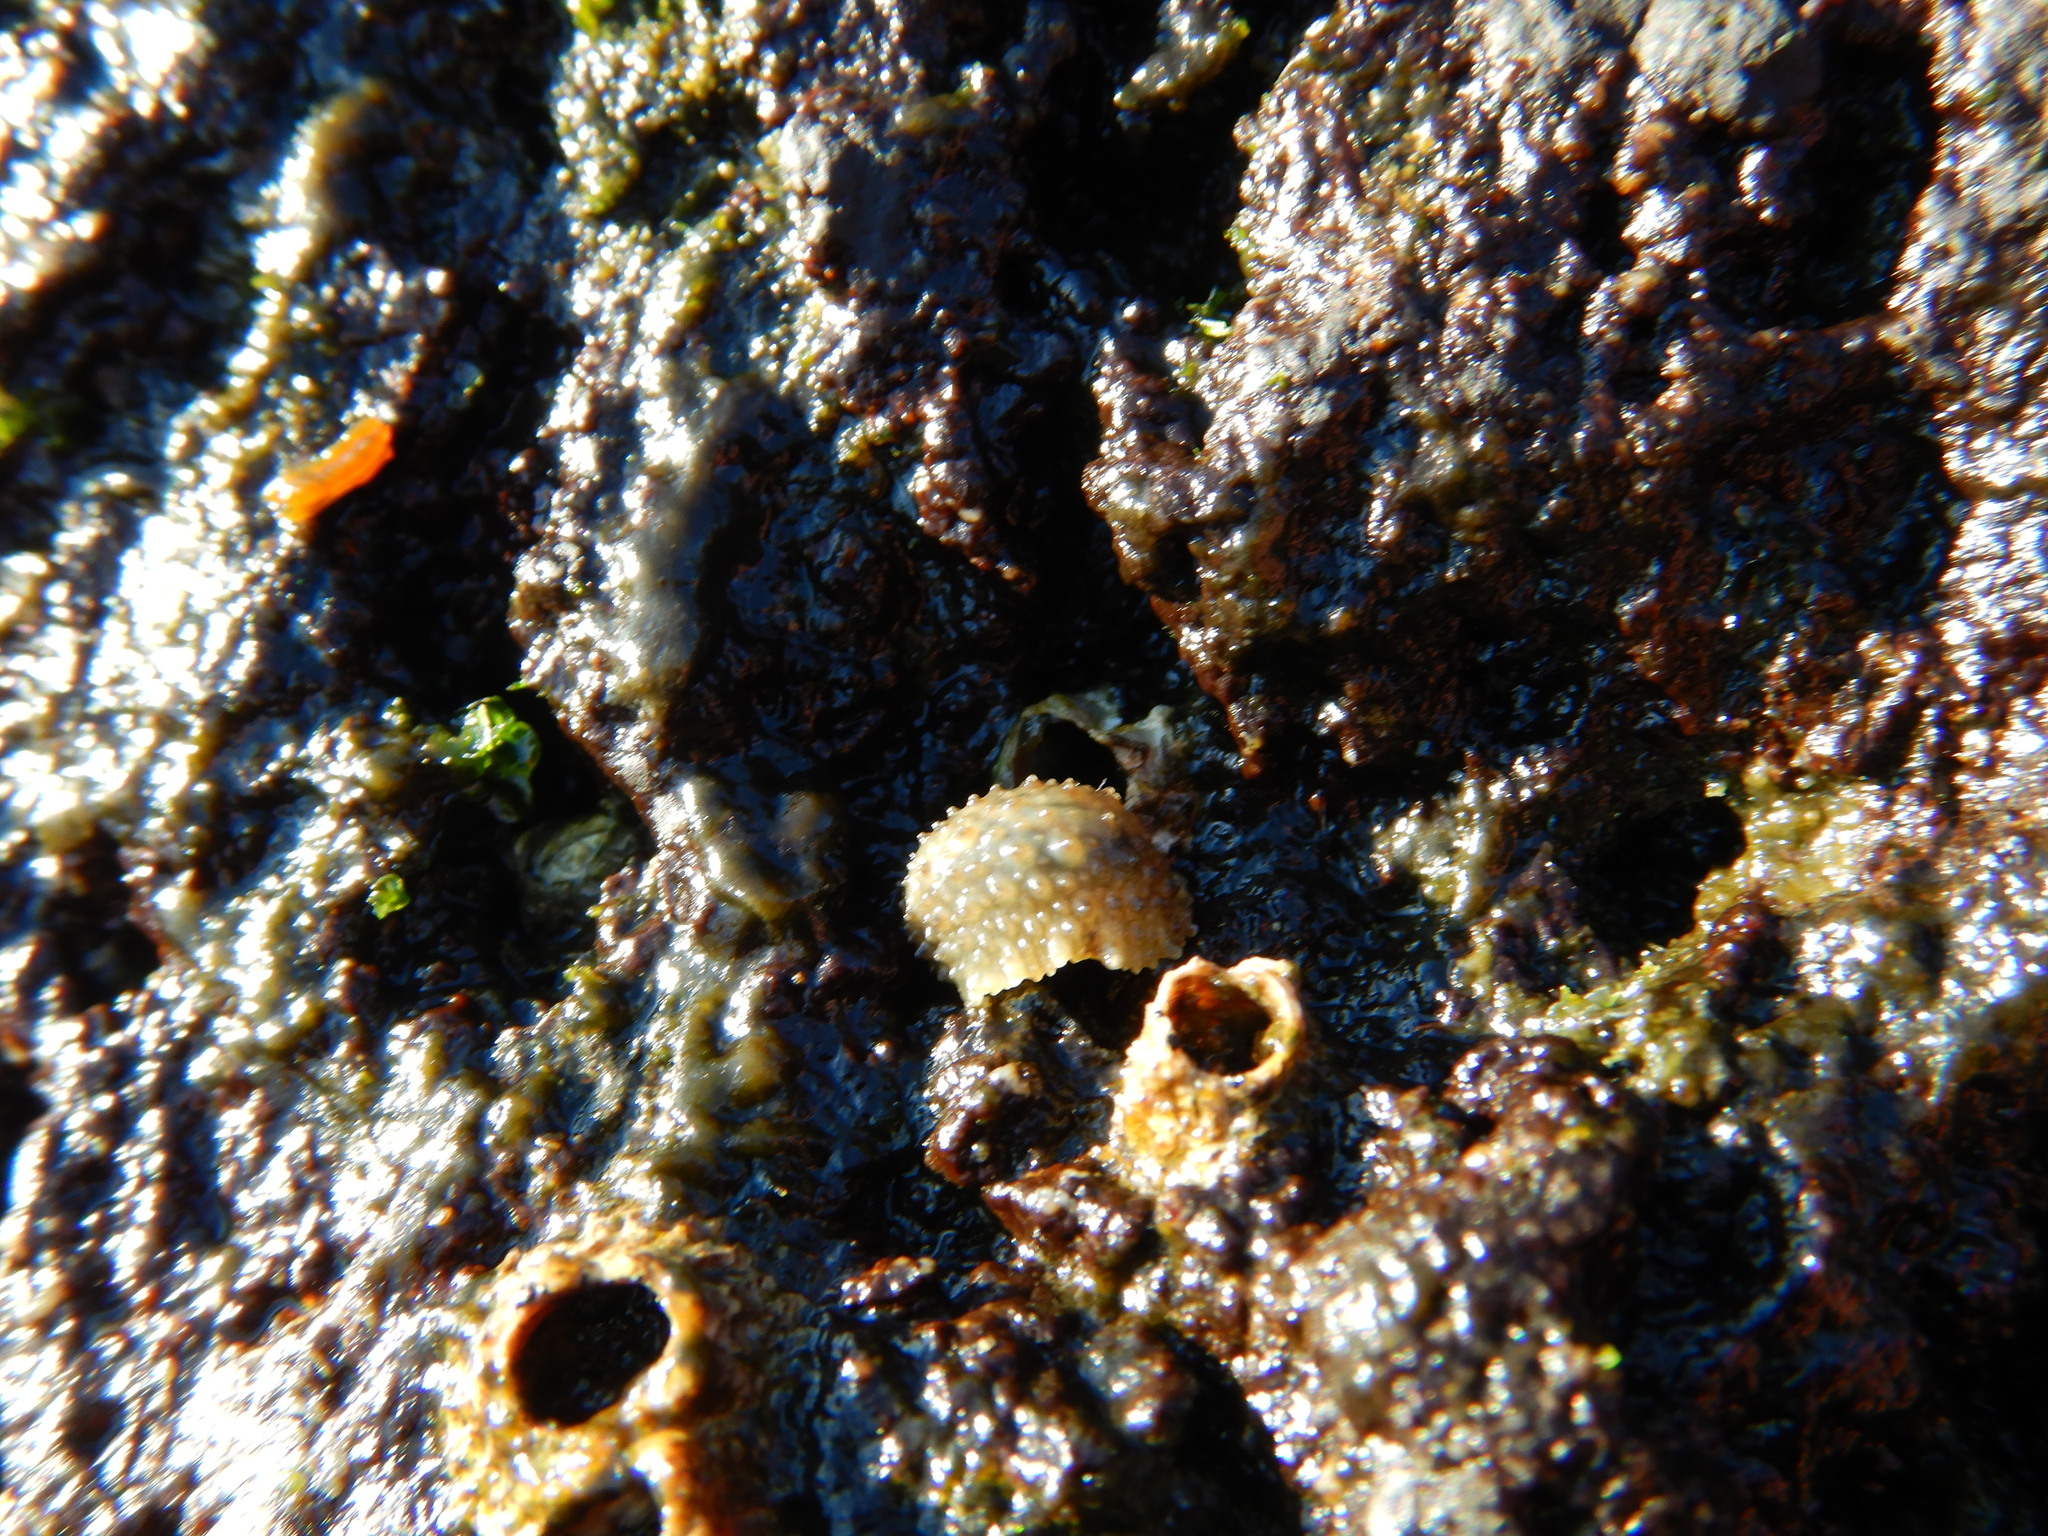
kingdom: Animalia
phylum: Mollusca
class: Gastropoda
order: Systellommatophora
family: Onchidiidae
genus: Onchidella
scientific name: Onchidella celtica
